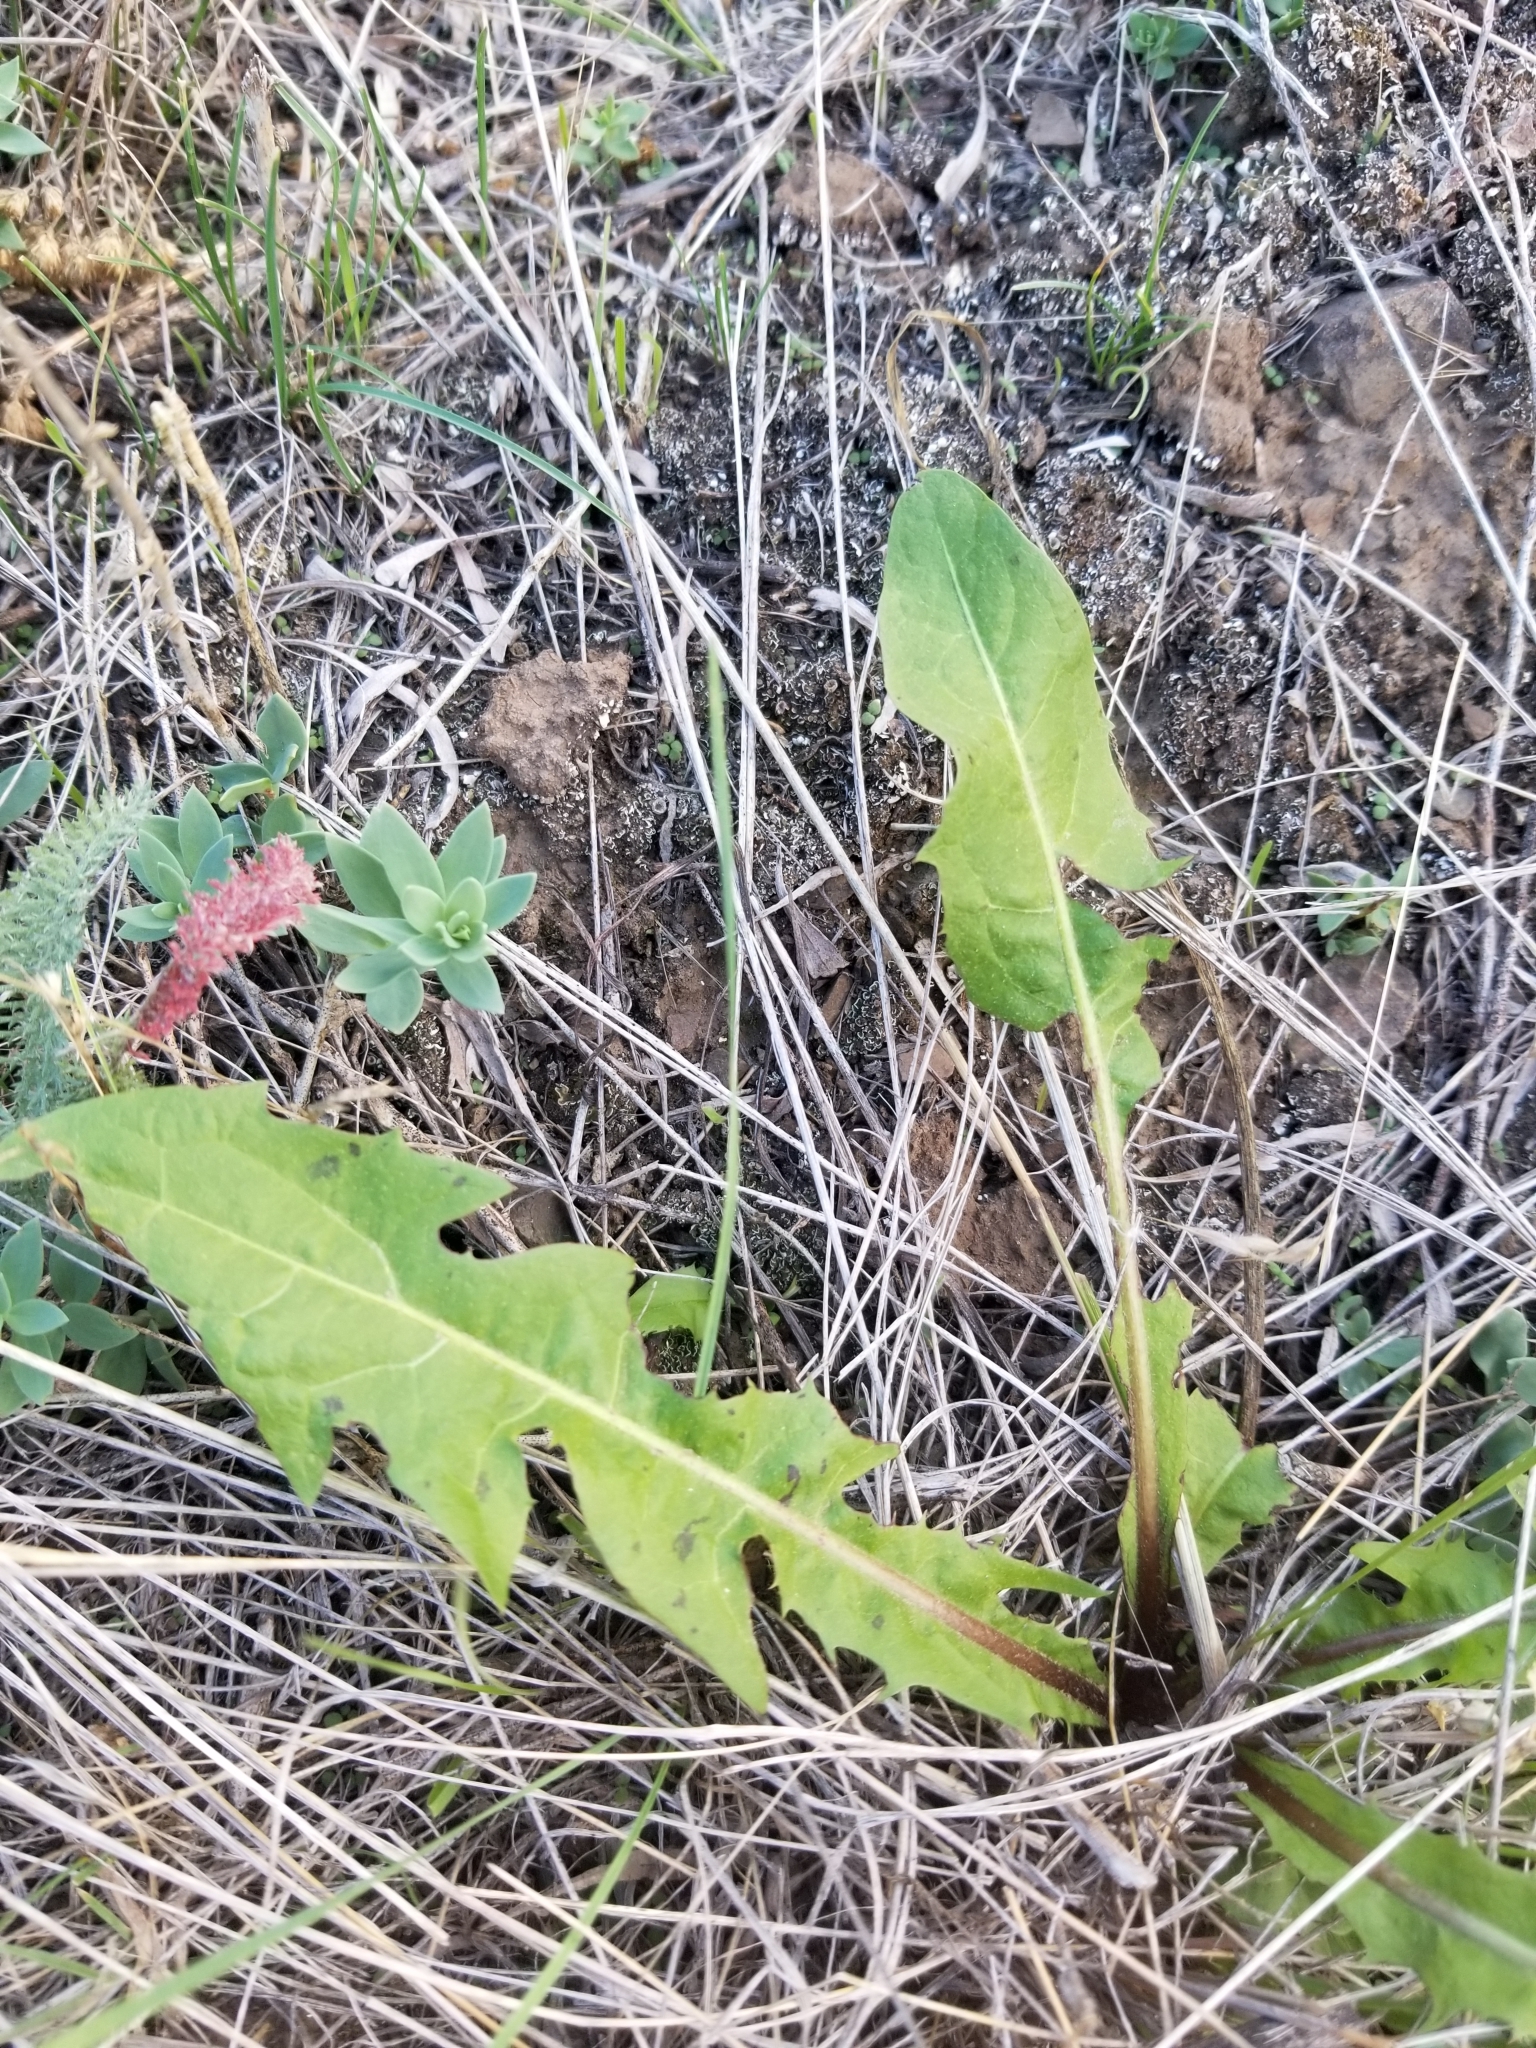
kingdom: Plantae
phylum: Tracheophyta
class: Magnoliopsida
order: Asterales
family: Asteraceae
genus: Taraxacum
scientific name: Taraxacum officinale
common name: Common dandelion
